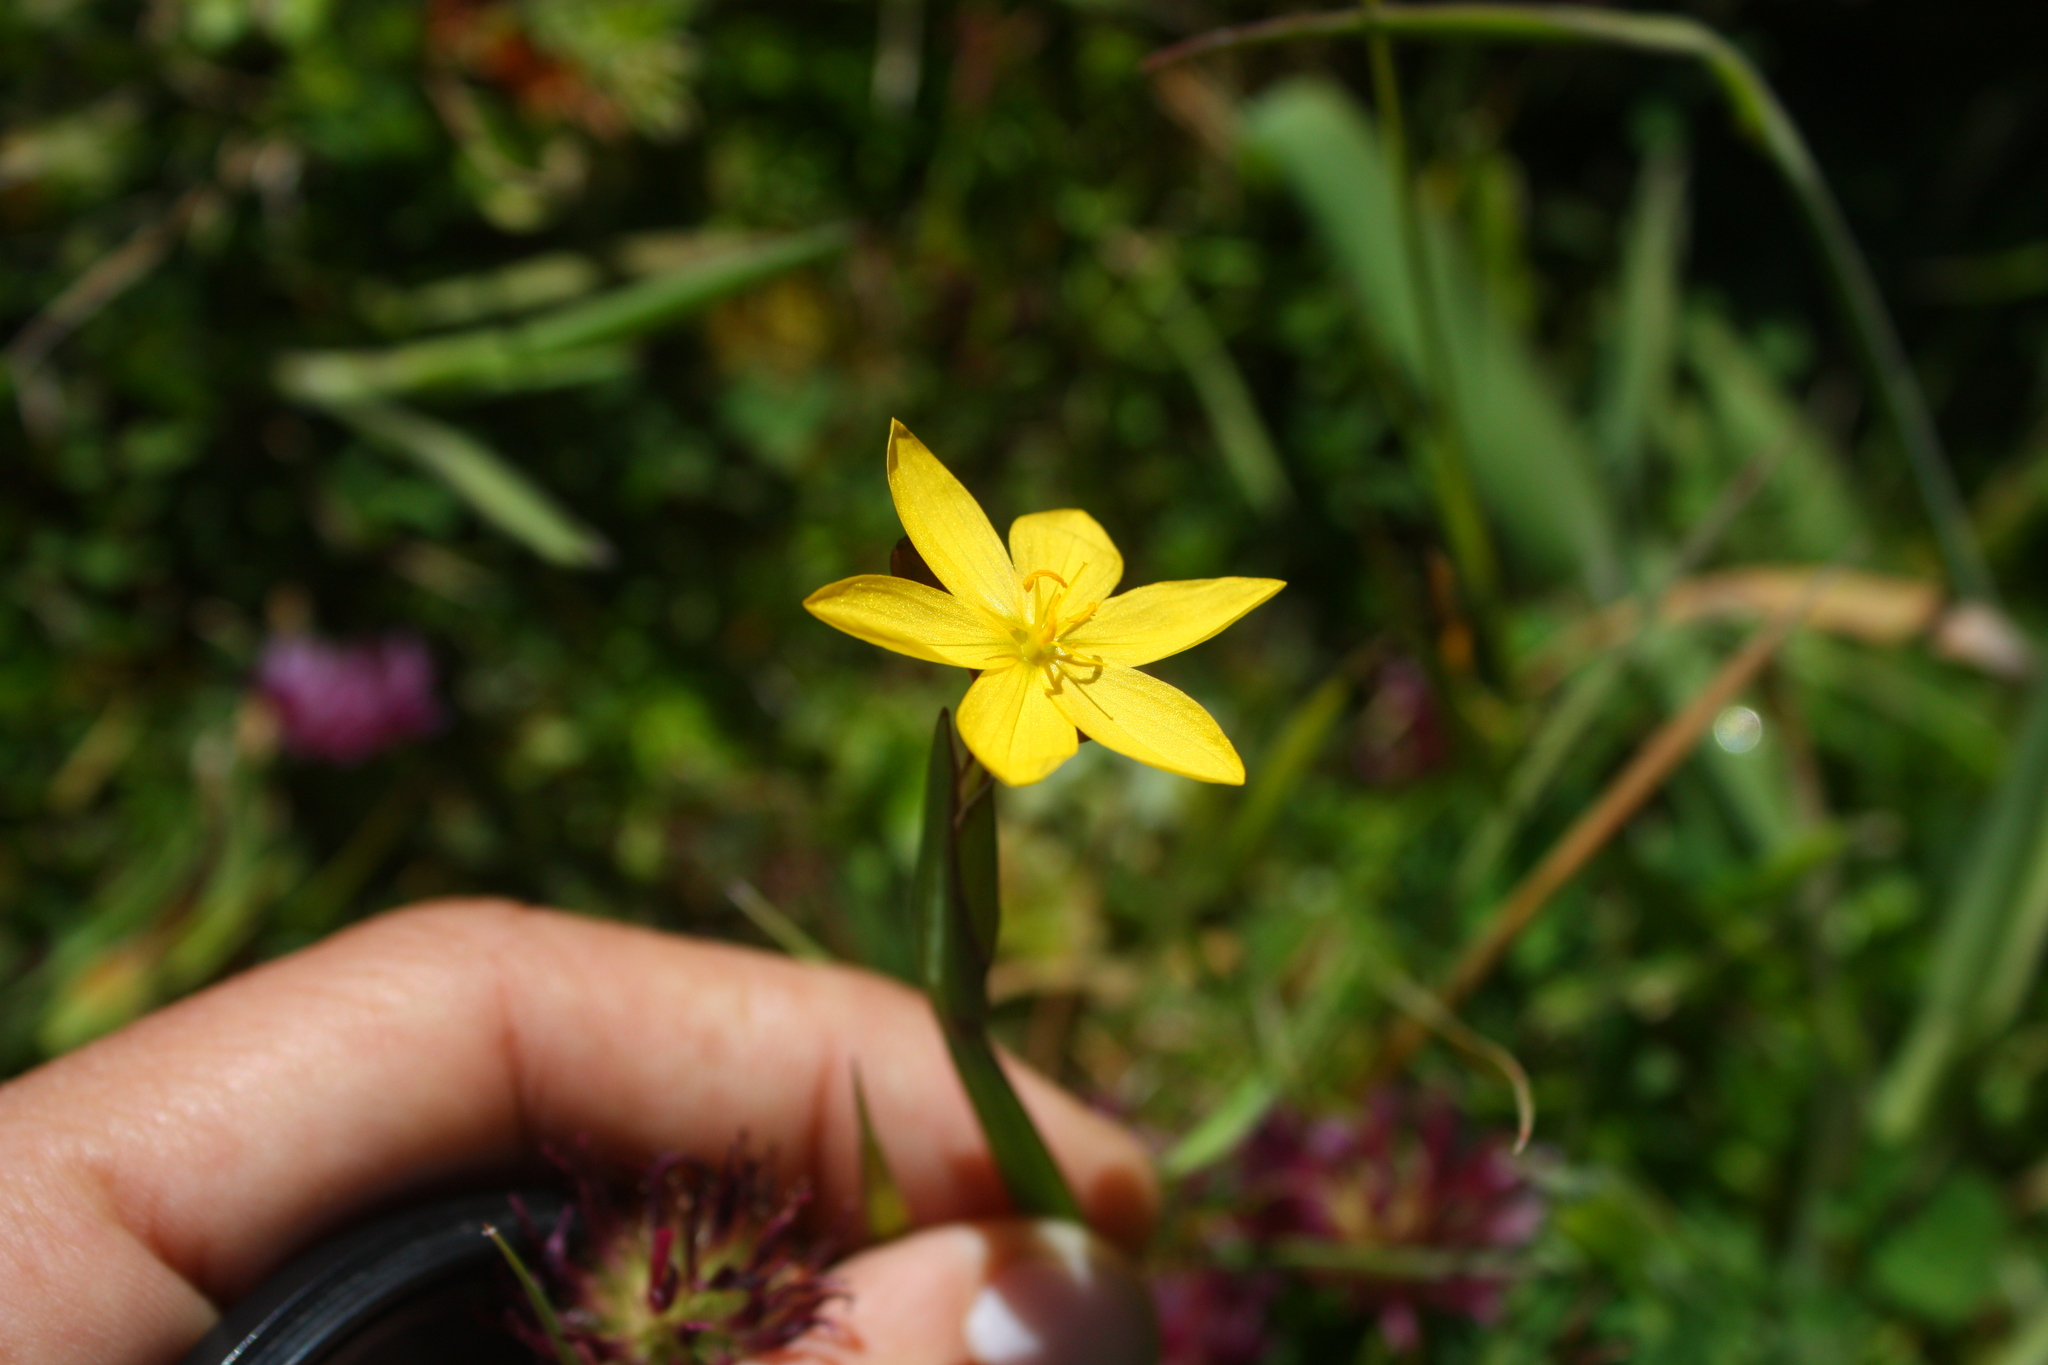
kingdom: Plantae
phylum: Tracheophyta
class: Liliopsida
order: Asparagales
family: Iridaceae
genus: Sisyrinchium
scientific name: Sisyrinchium californicum
